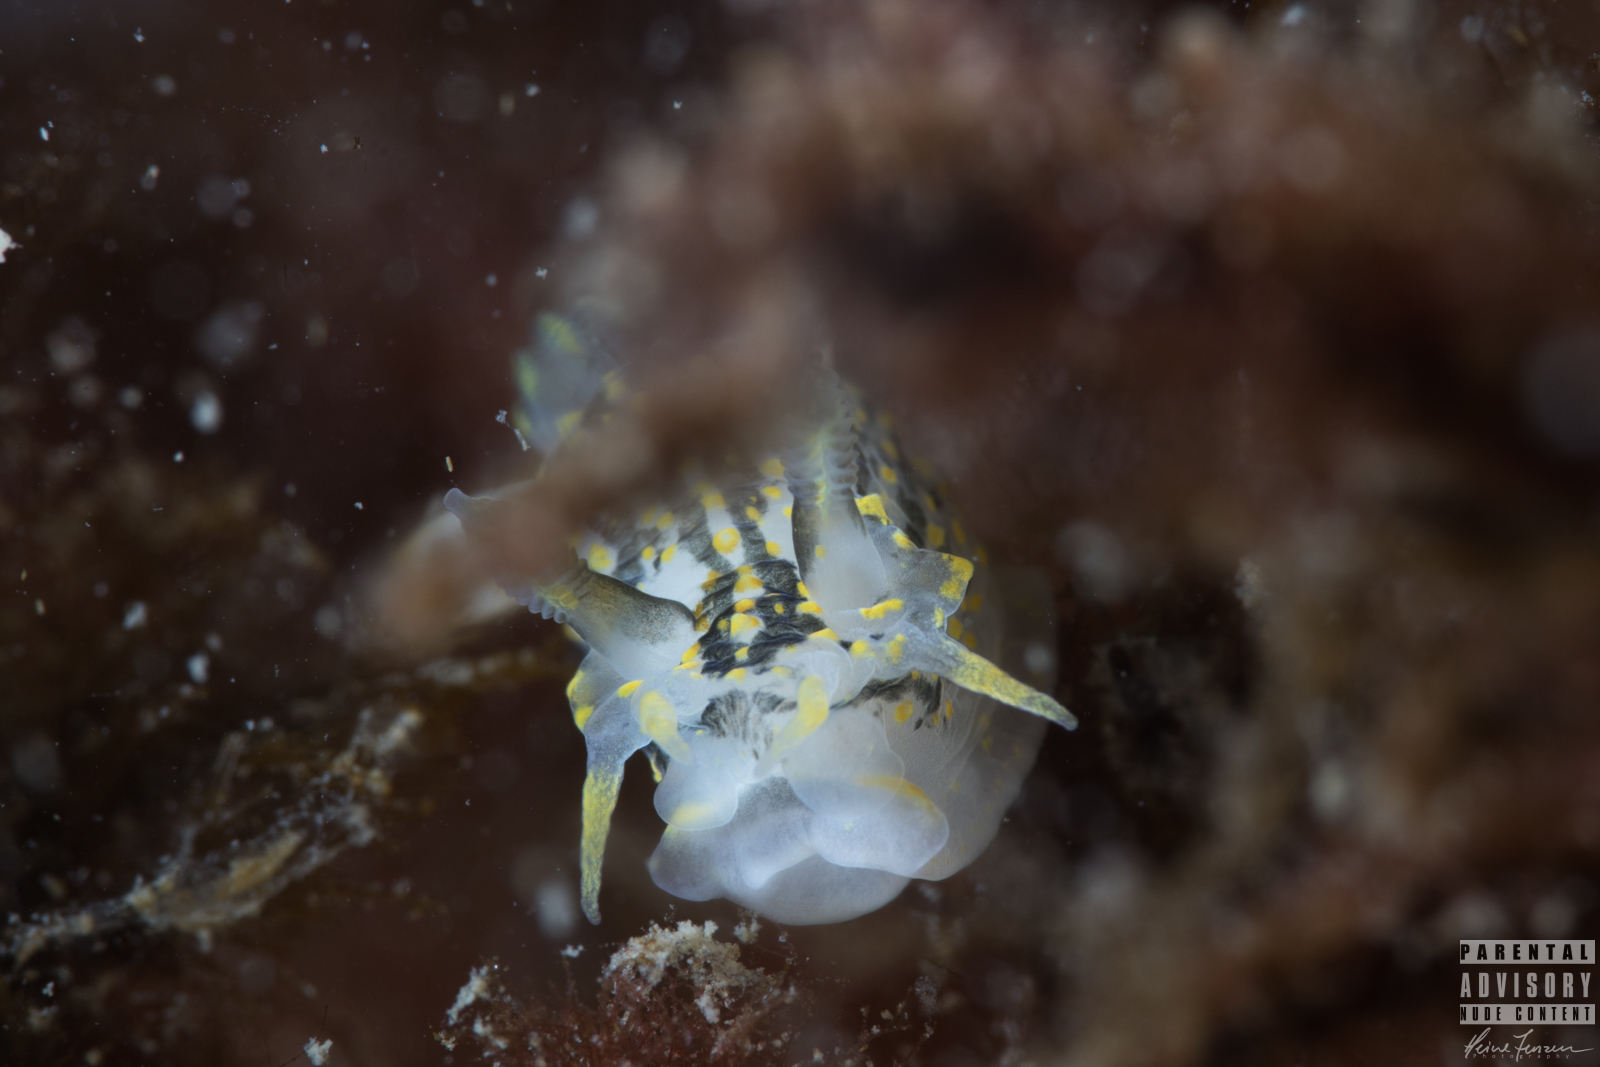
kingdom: Animalia
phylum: Mollusca
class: Gastropoda
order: Nudibranchia
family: Polyceridae
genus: Polycera
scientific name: Polycera quadrilineata
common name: Four-striped polycera
